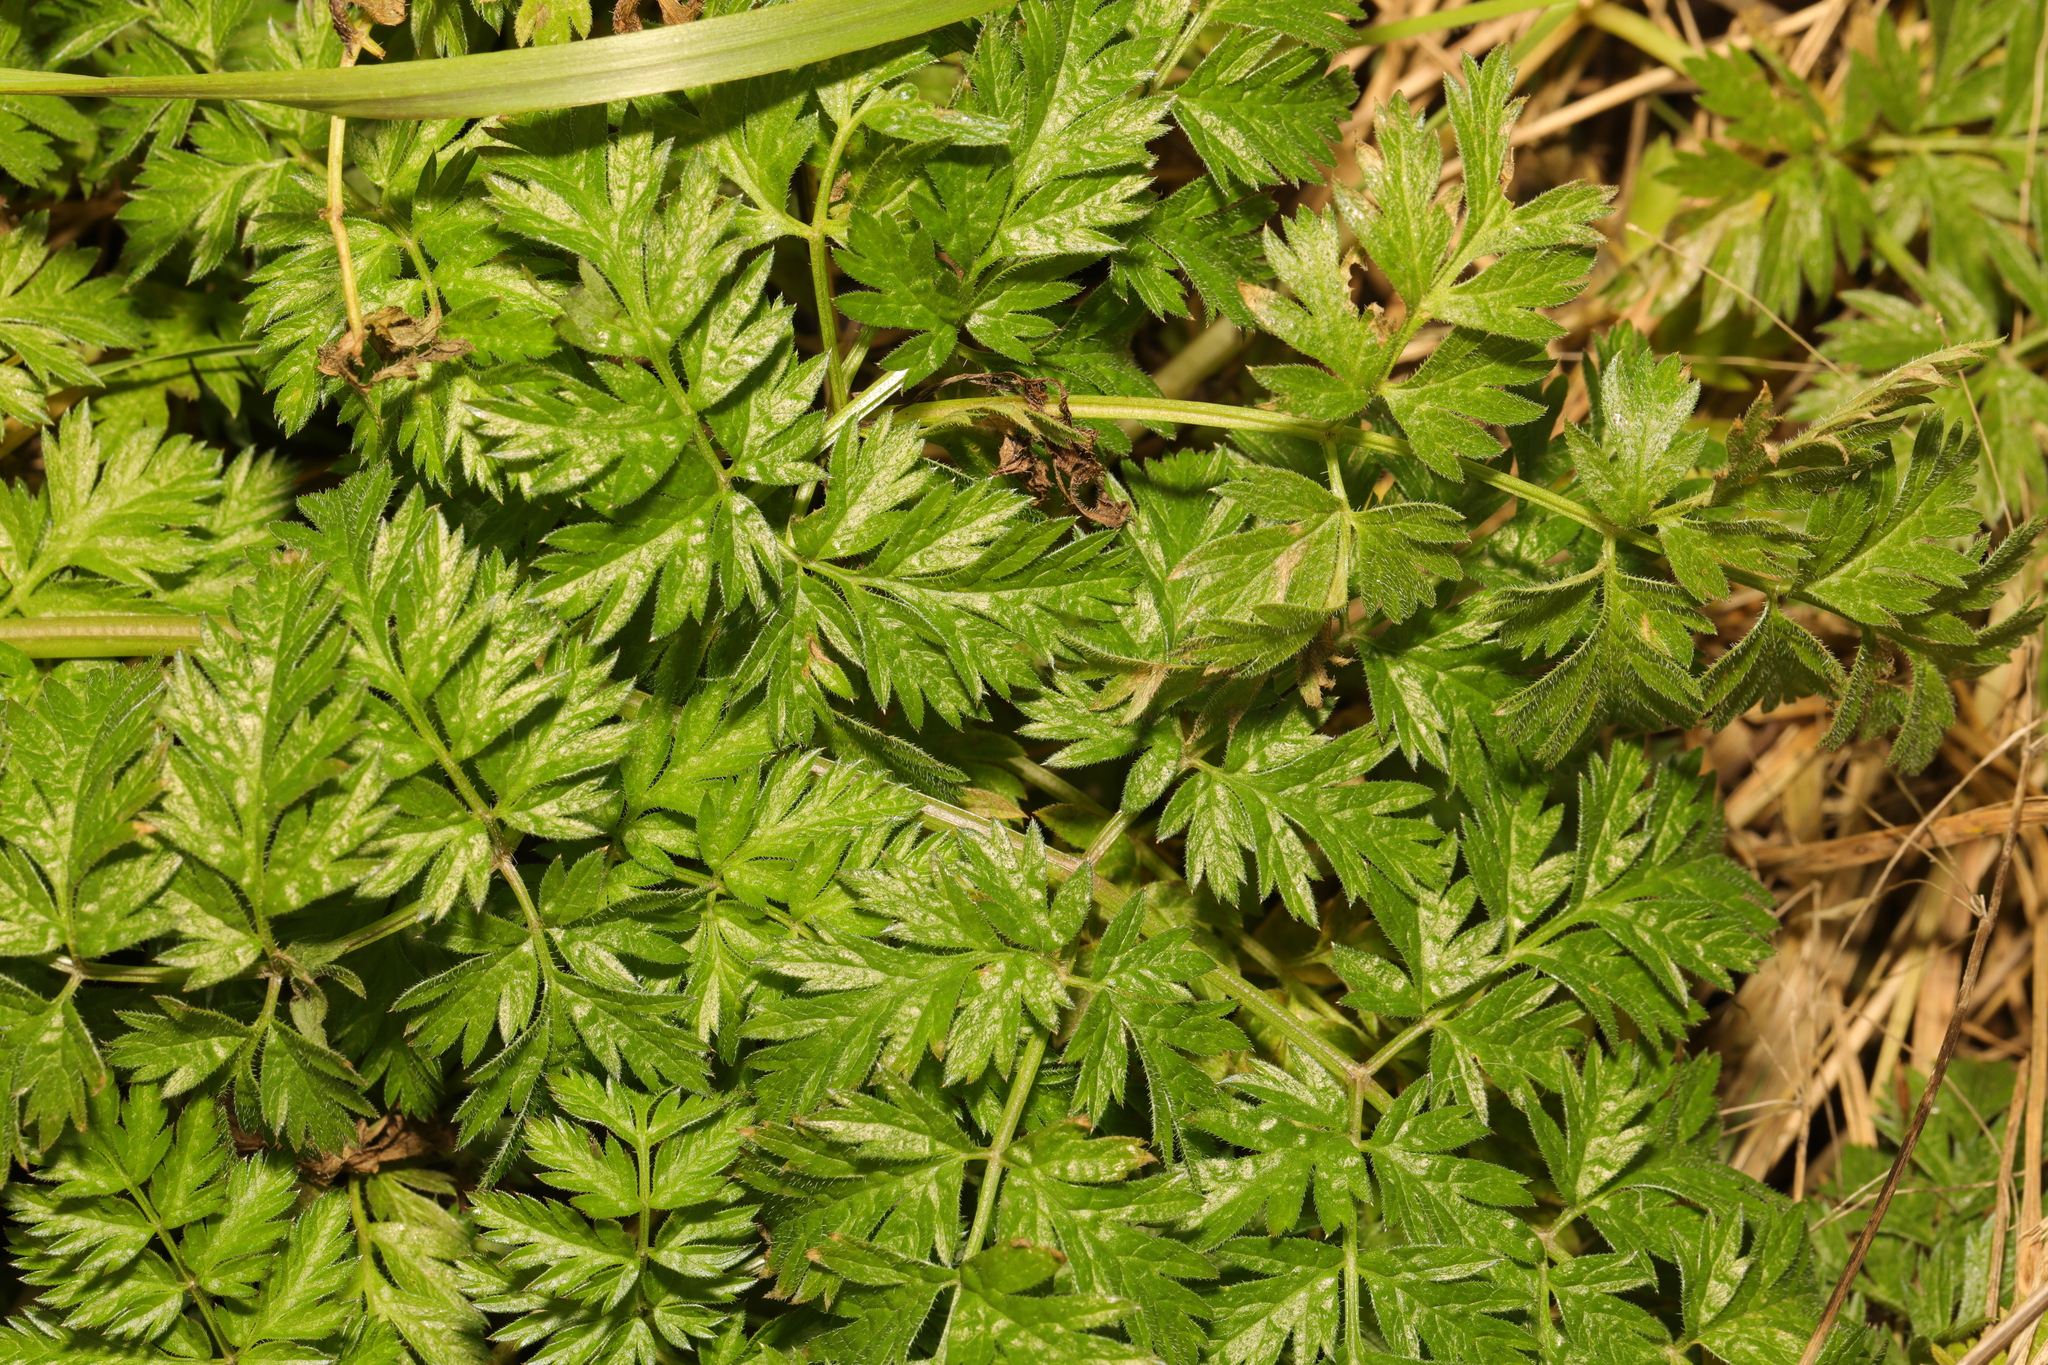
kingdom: Plantae
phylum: Tracheophyta
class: Magnoliopsida
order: Apiales
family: Apiaceae
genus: Anthriscus
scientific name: Anthriscus sylvestris
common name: Cow parsley
